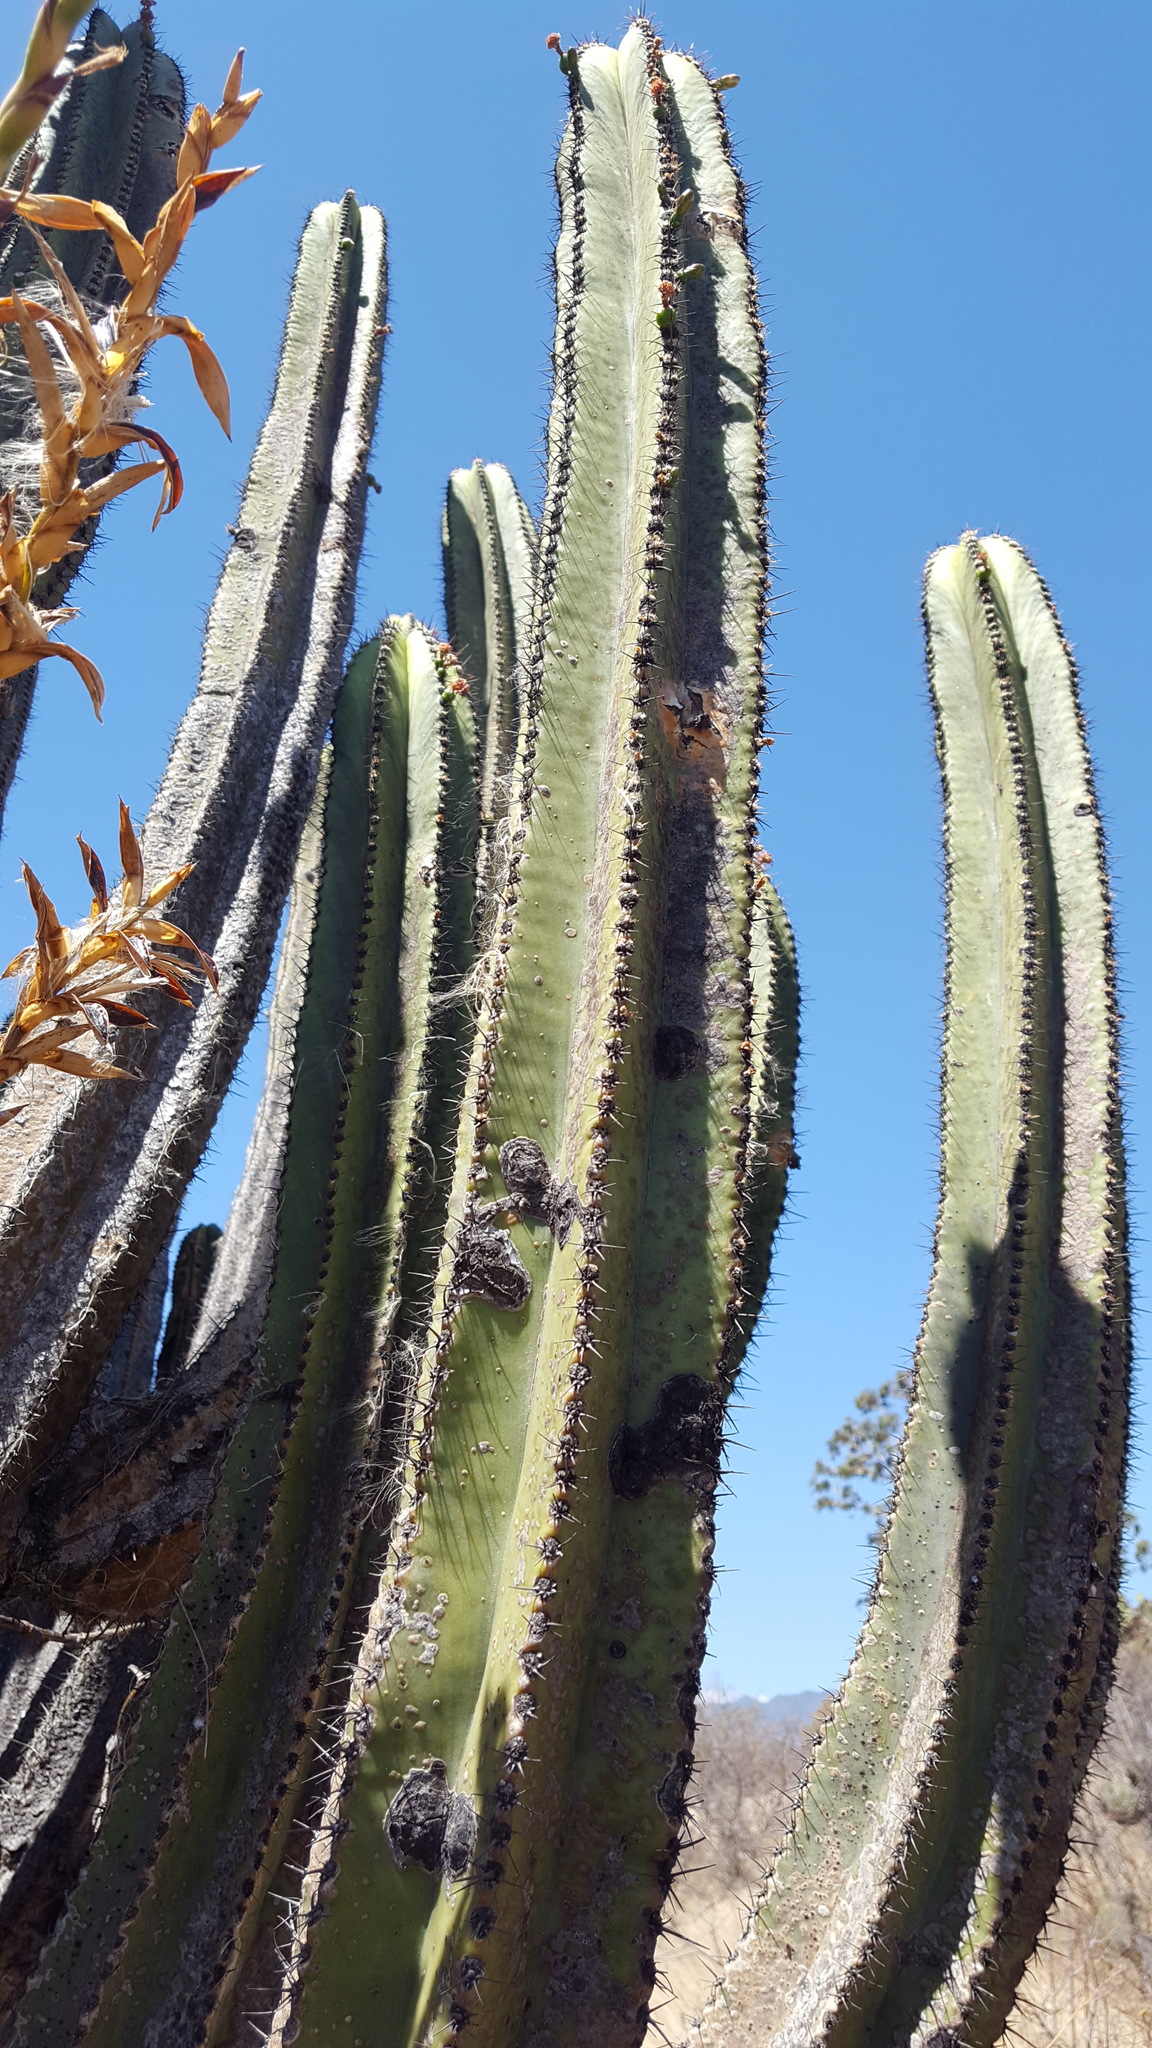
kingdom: Plantae
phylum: Tracheophyta
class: Magnoliopsida
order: Caryophyllales
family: Cactaceae
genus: Myrtillocactus
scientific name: Myrtillocactus schenckii
